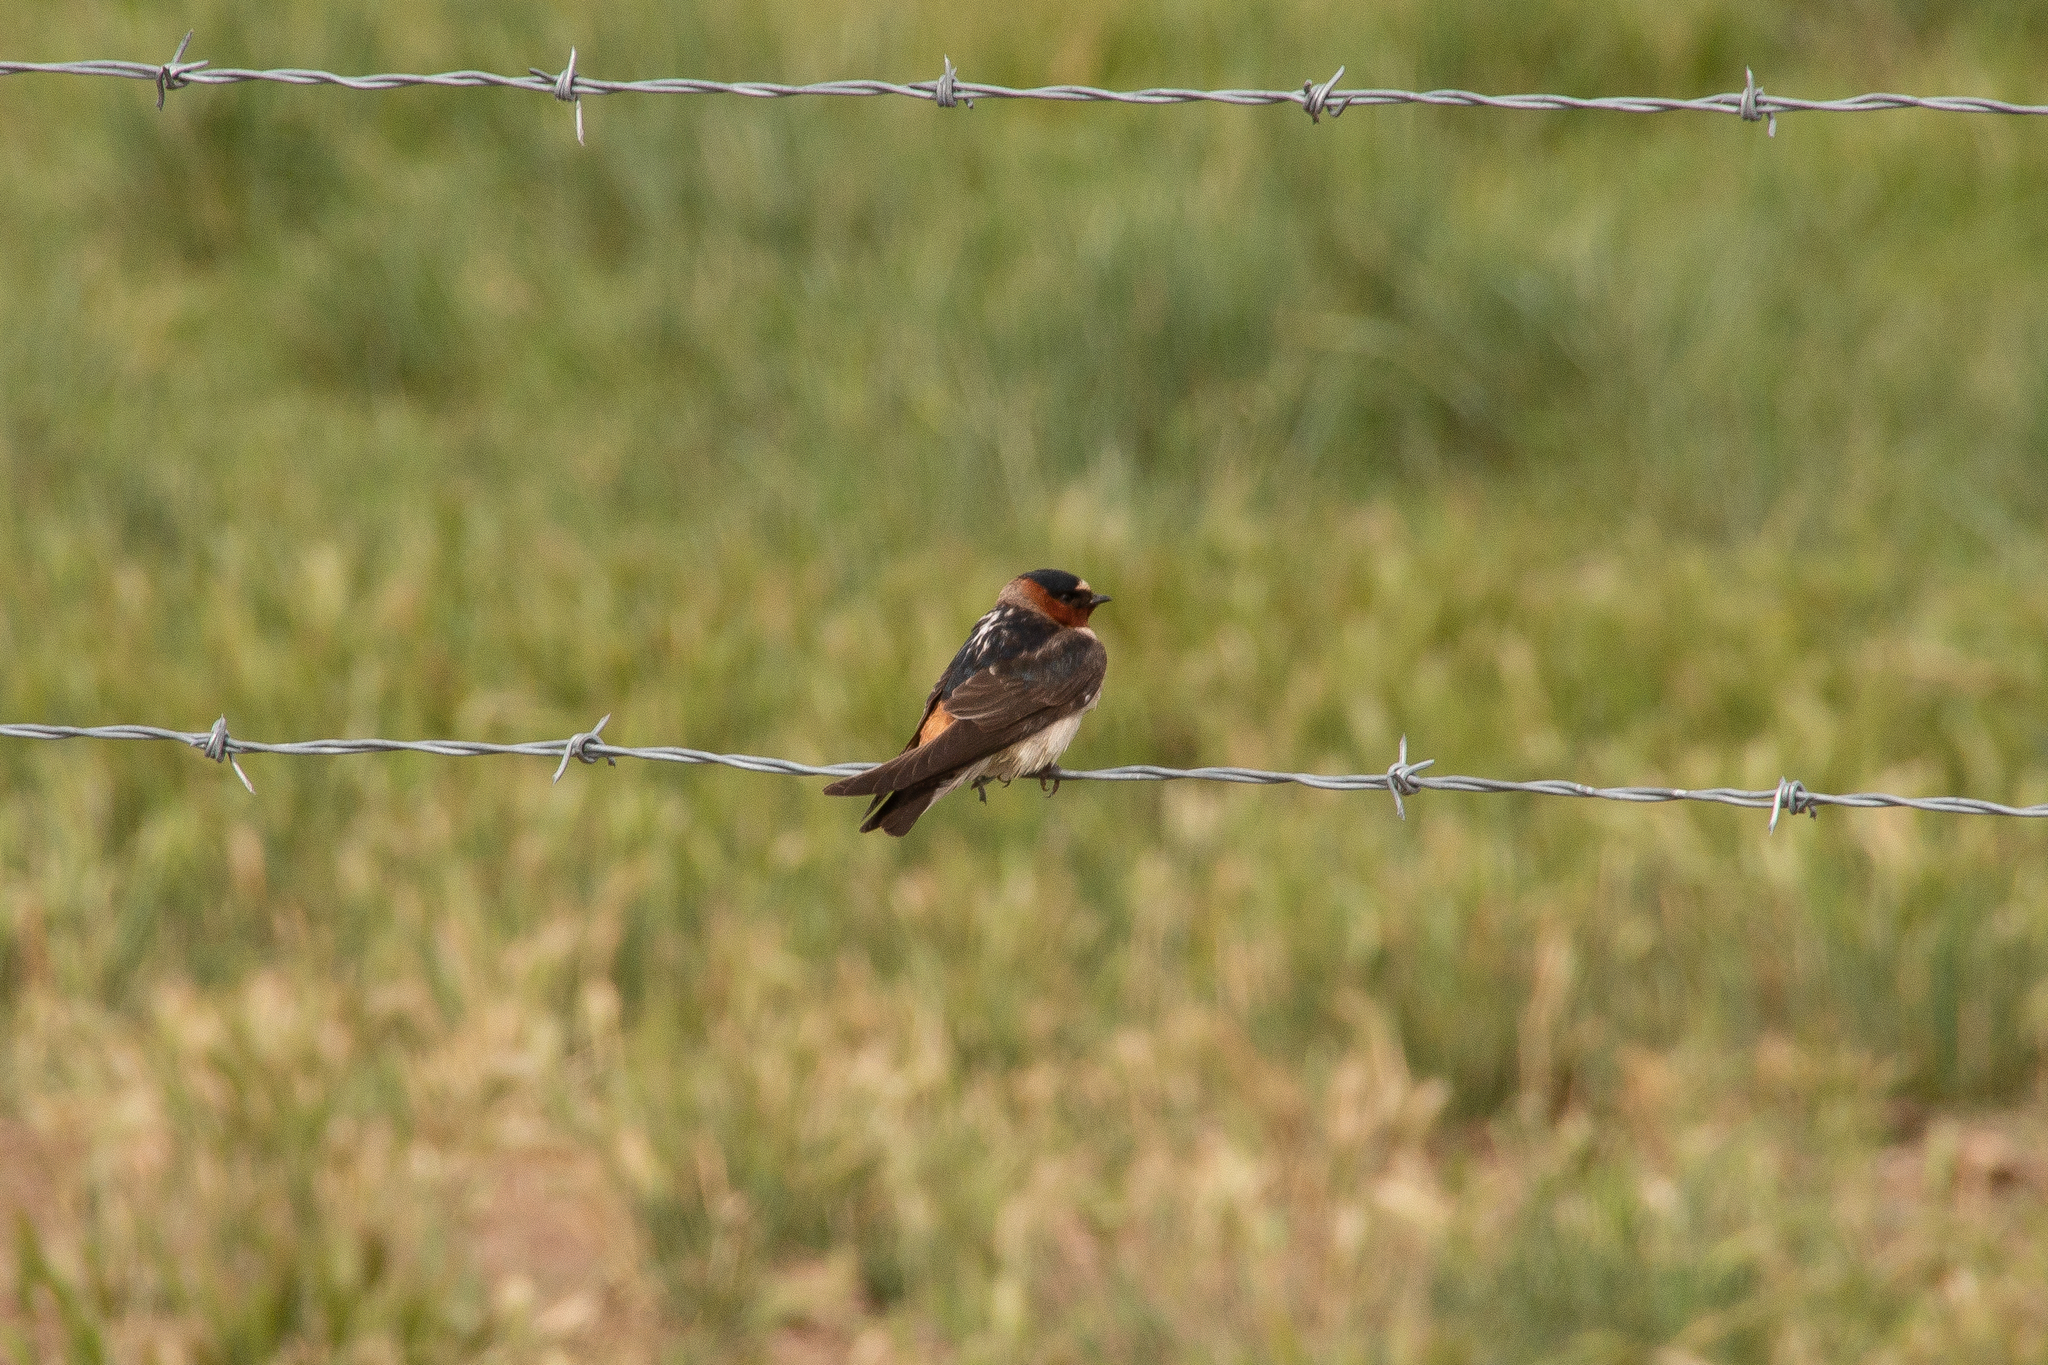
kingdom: Animalia
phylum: Chordata
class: Aves
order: Passeriformes
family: Hirundinidae
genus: Petrochelidon
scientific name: Petrochelidon pyrrhonota
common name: American cliff swallow
